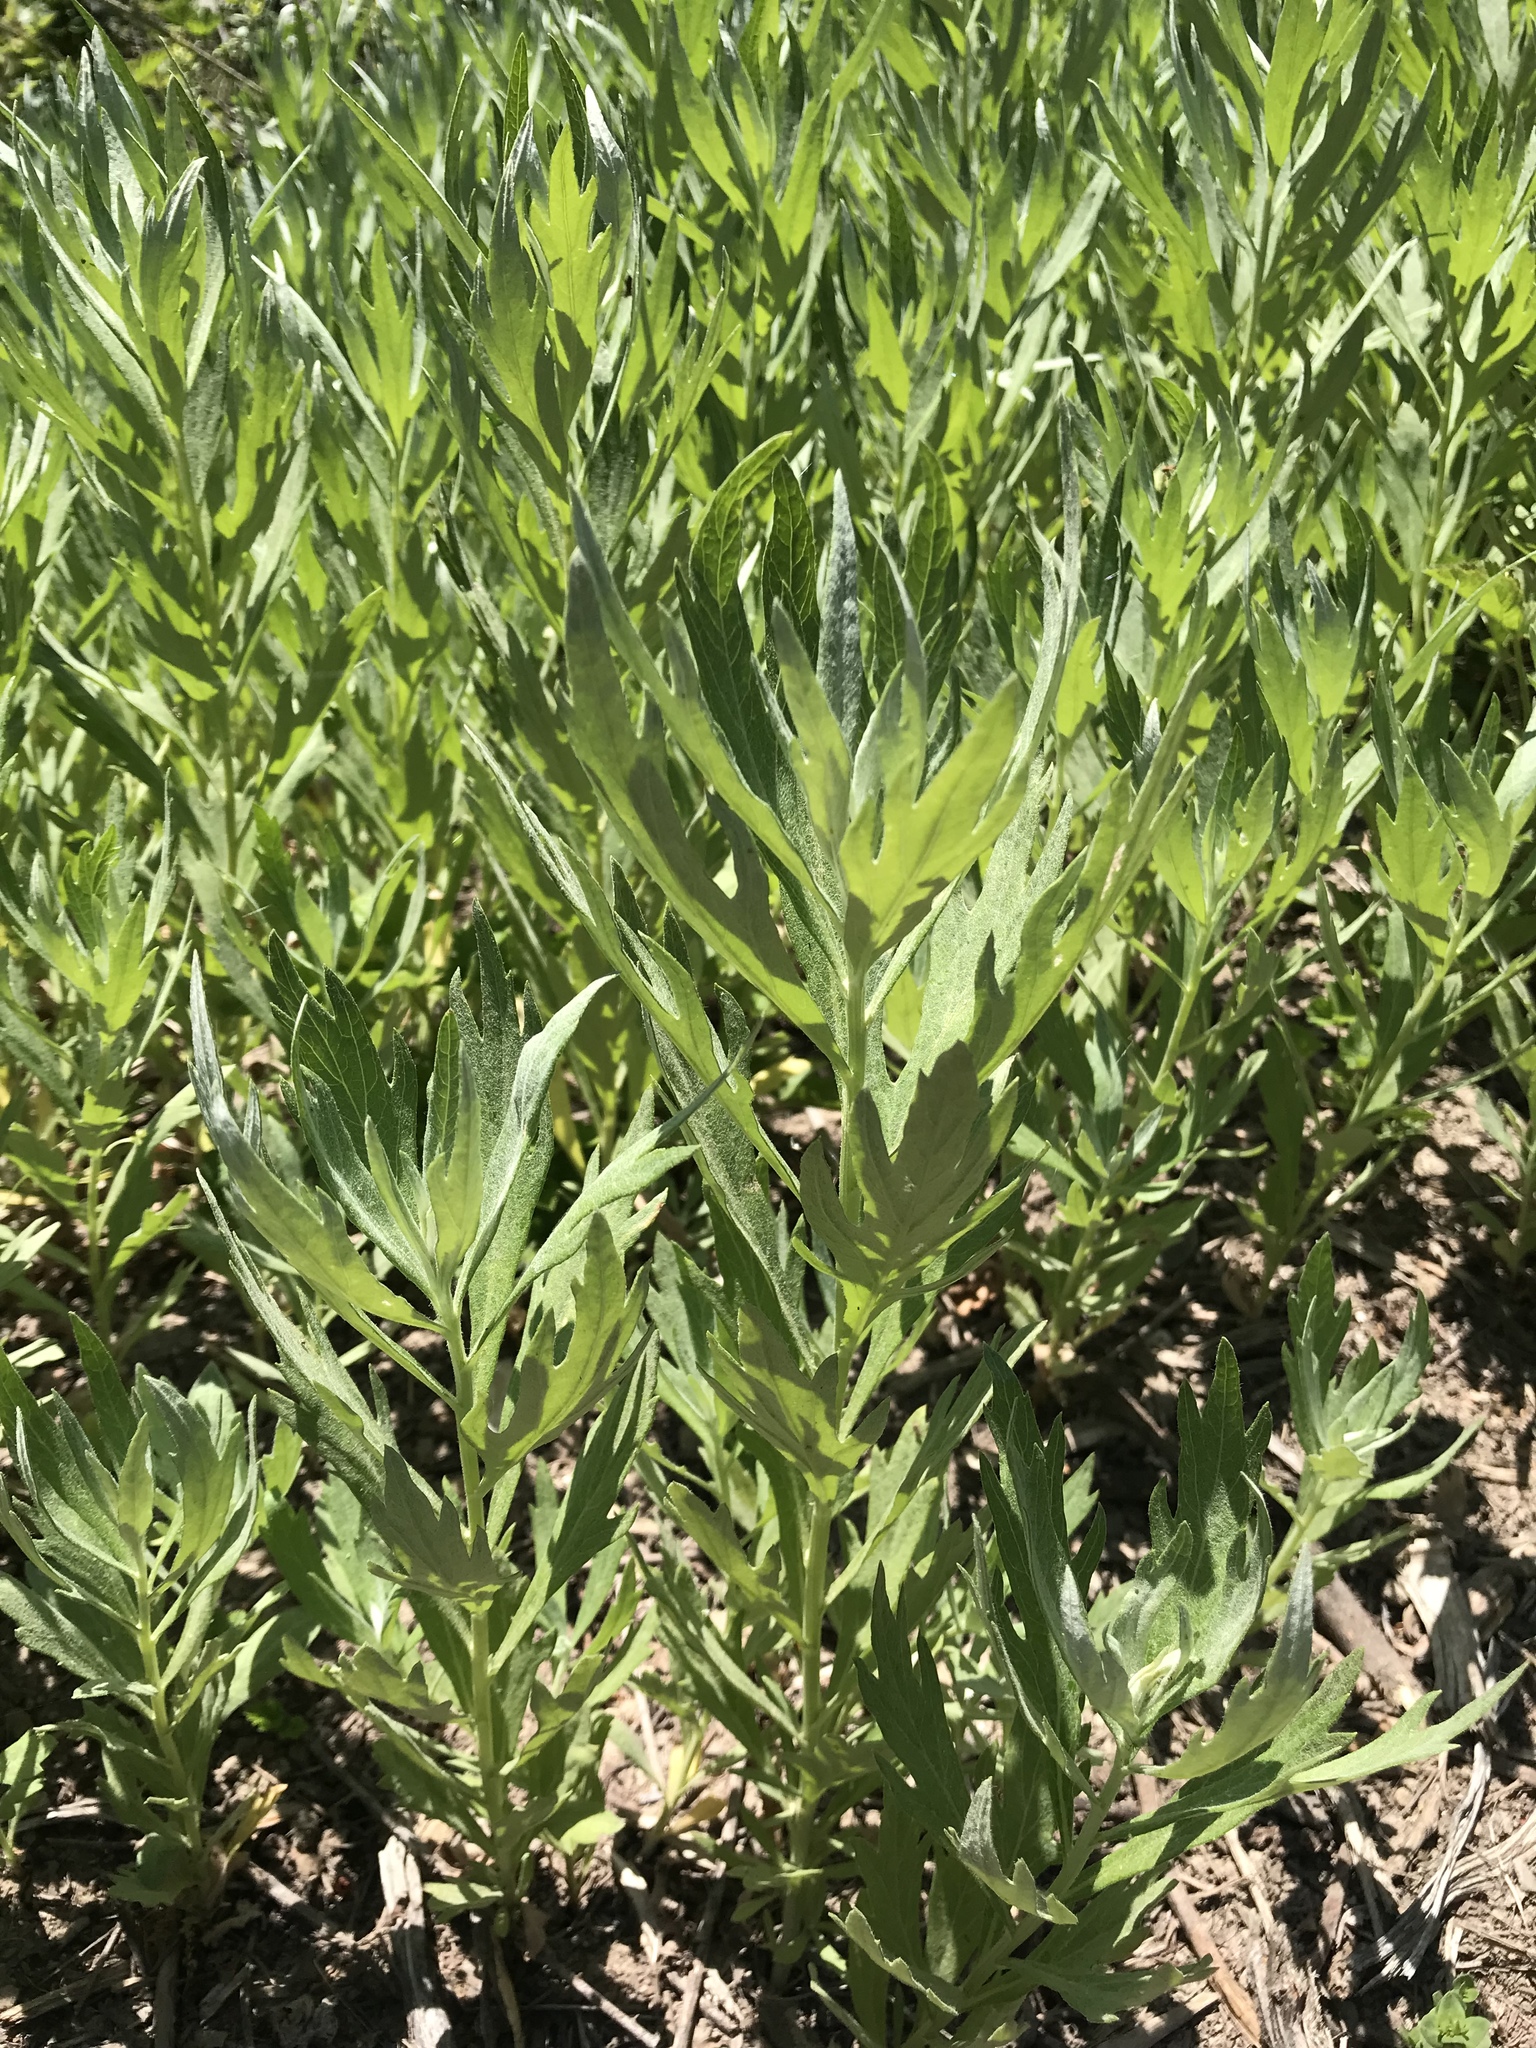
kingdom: Plantae
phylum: Tracheophyta
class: Magnoliopsida
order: Asterales
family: Asteraceae
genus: Artemisia
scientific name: Artemisia douglasiana
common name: Northwest mugwort
